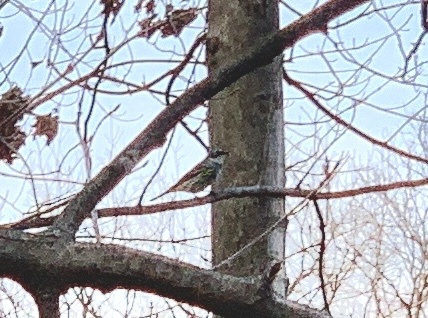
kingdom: Animalia
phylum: Chordata
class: Aves
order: Passeriformes
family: Parulidae
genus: Setophaga
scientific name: Setophaga coronata
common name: Myrtle warbler
